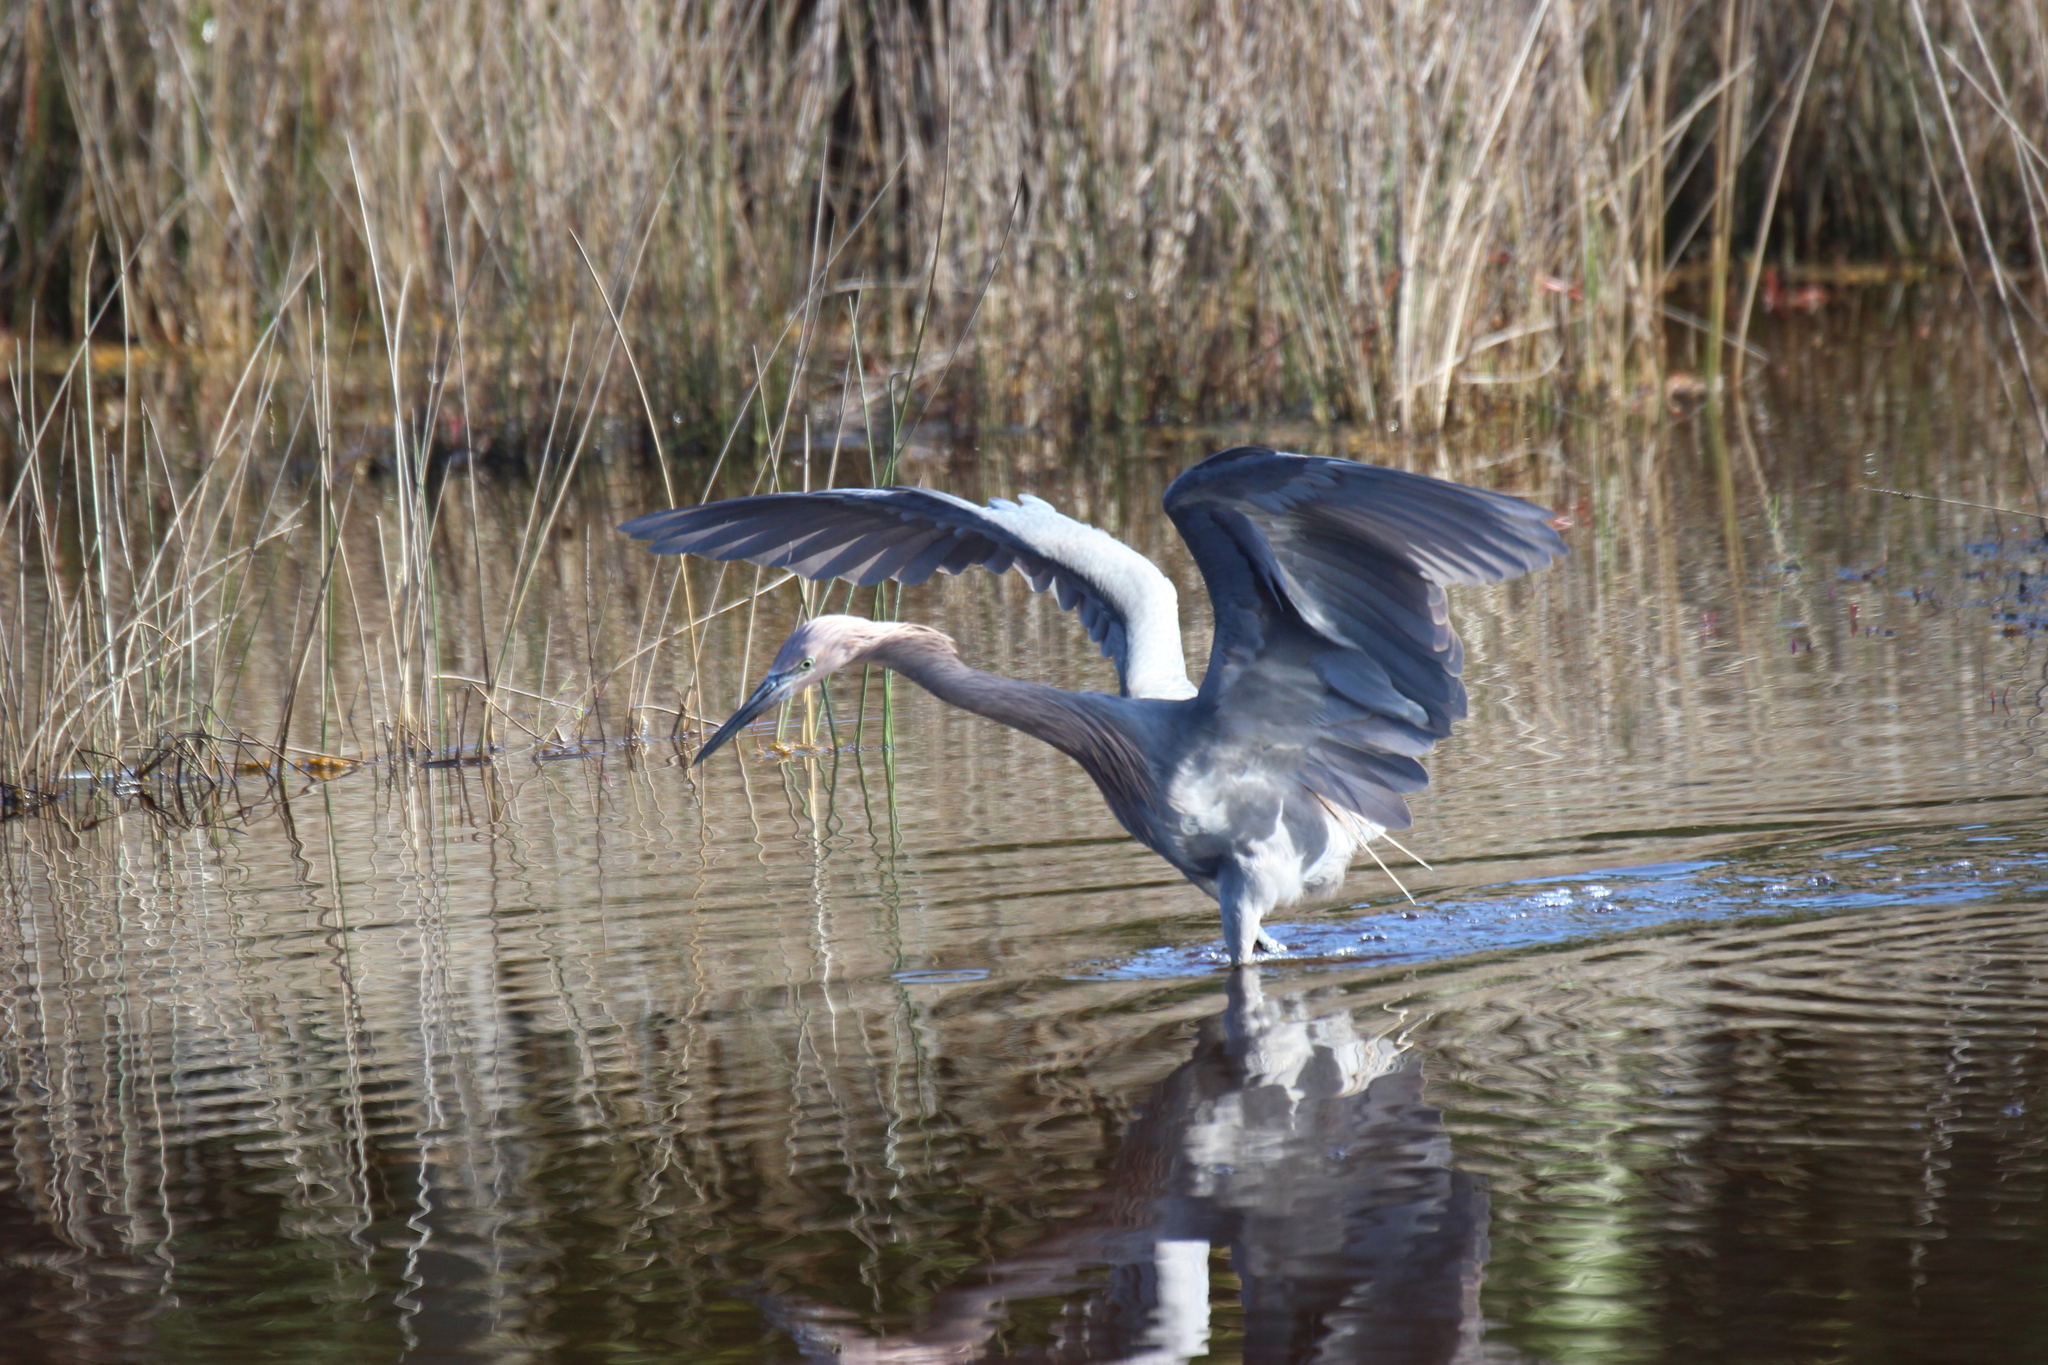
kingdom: Animalia
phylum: Chordata
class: Aves
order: Pelecaniformes
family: Ardeidae
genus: Egretta
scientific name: Egretta rufescens
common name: Reddish egret
